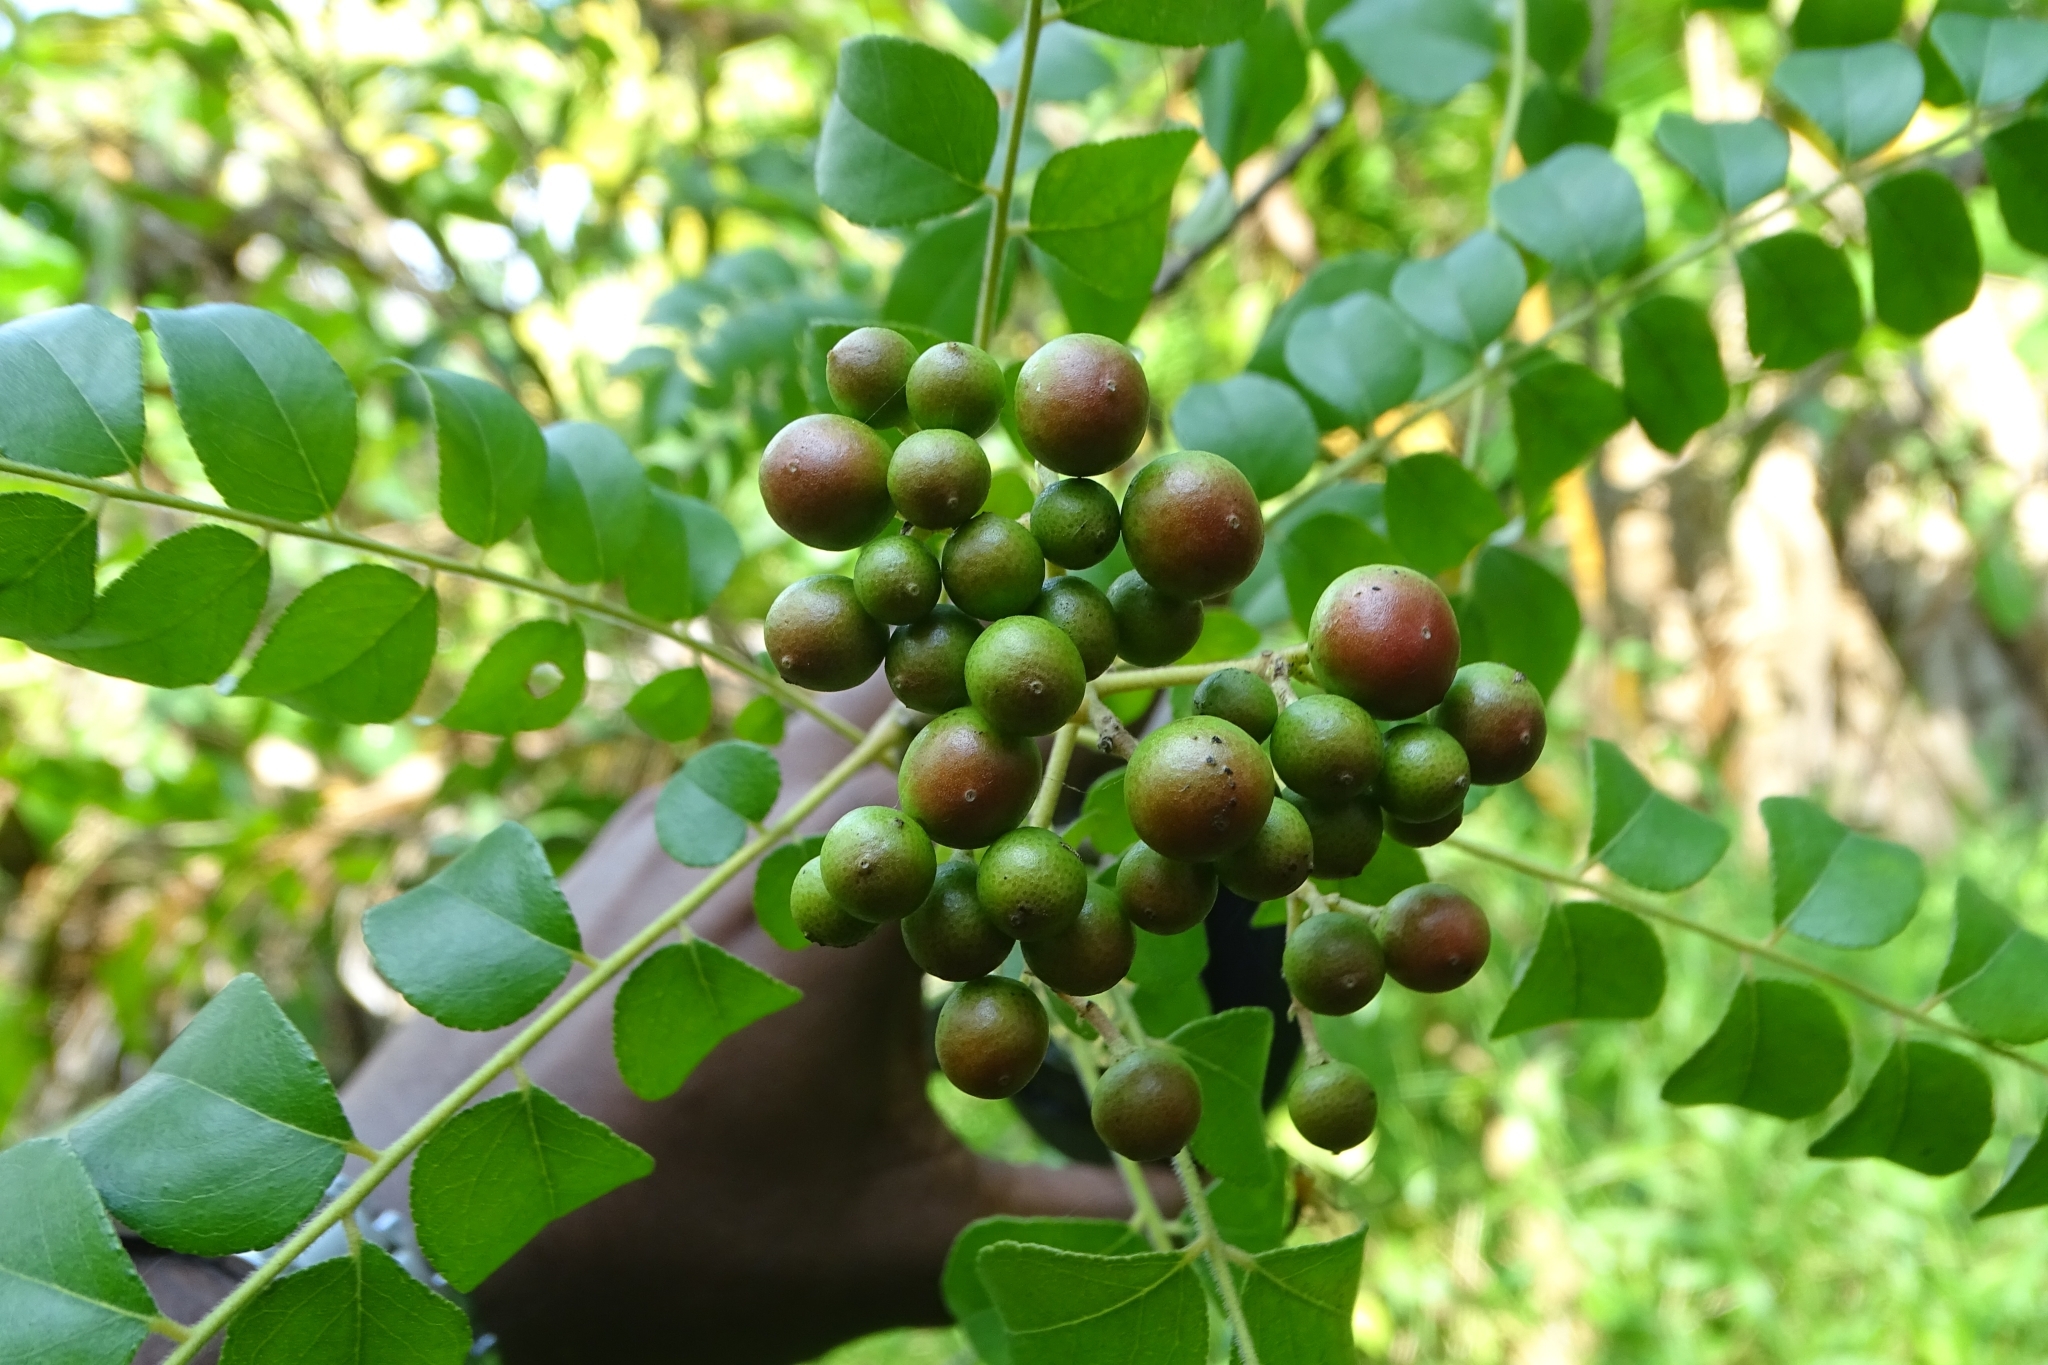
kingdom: Plantae
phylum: Tracheophyta
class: Magnoliopsida
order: Sapindales
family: Rutaceae
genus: Murraya
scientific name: Murraya koenigii
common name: Curry-plant
